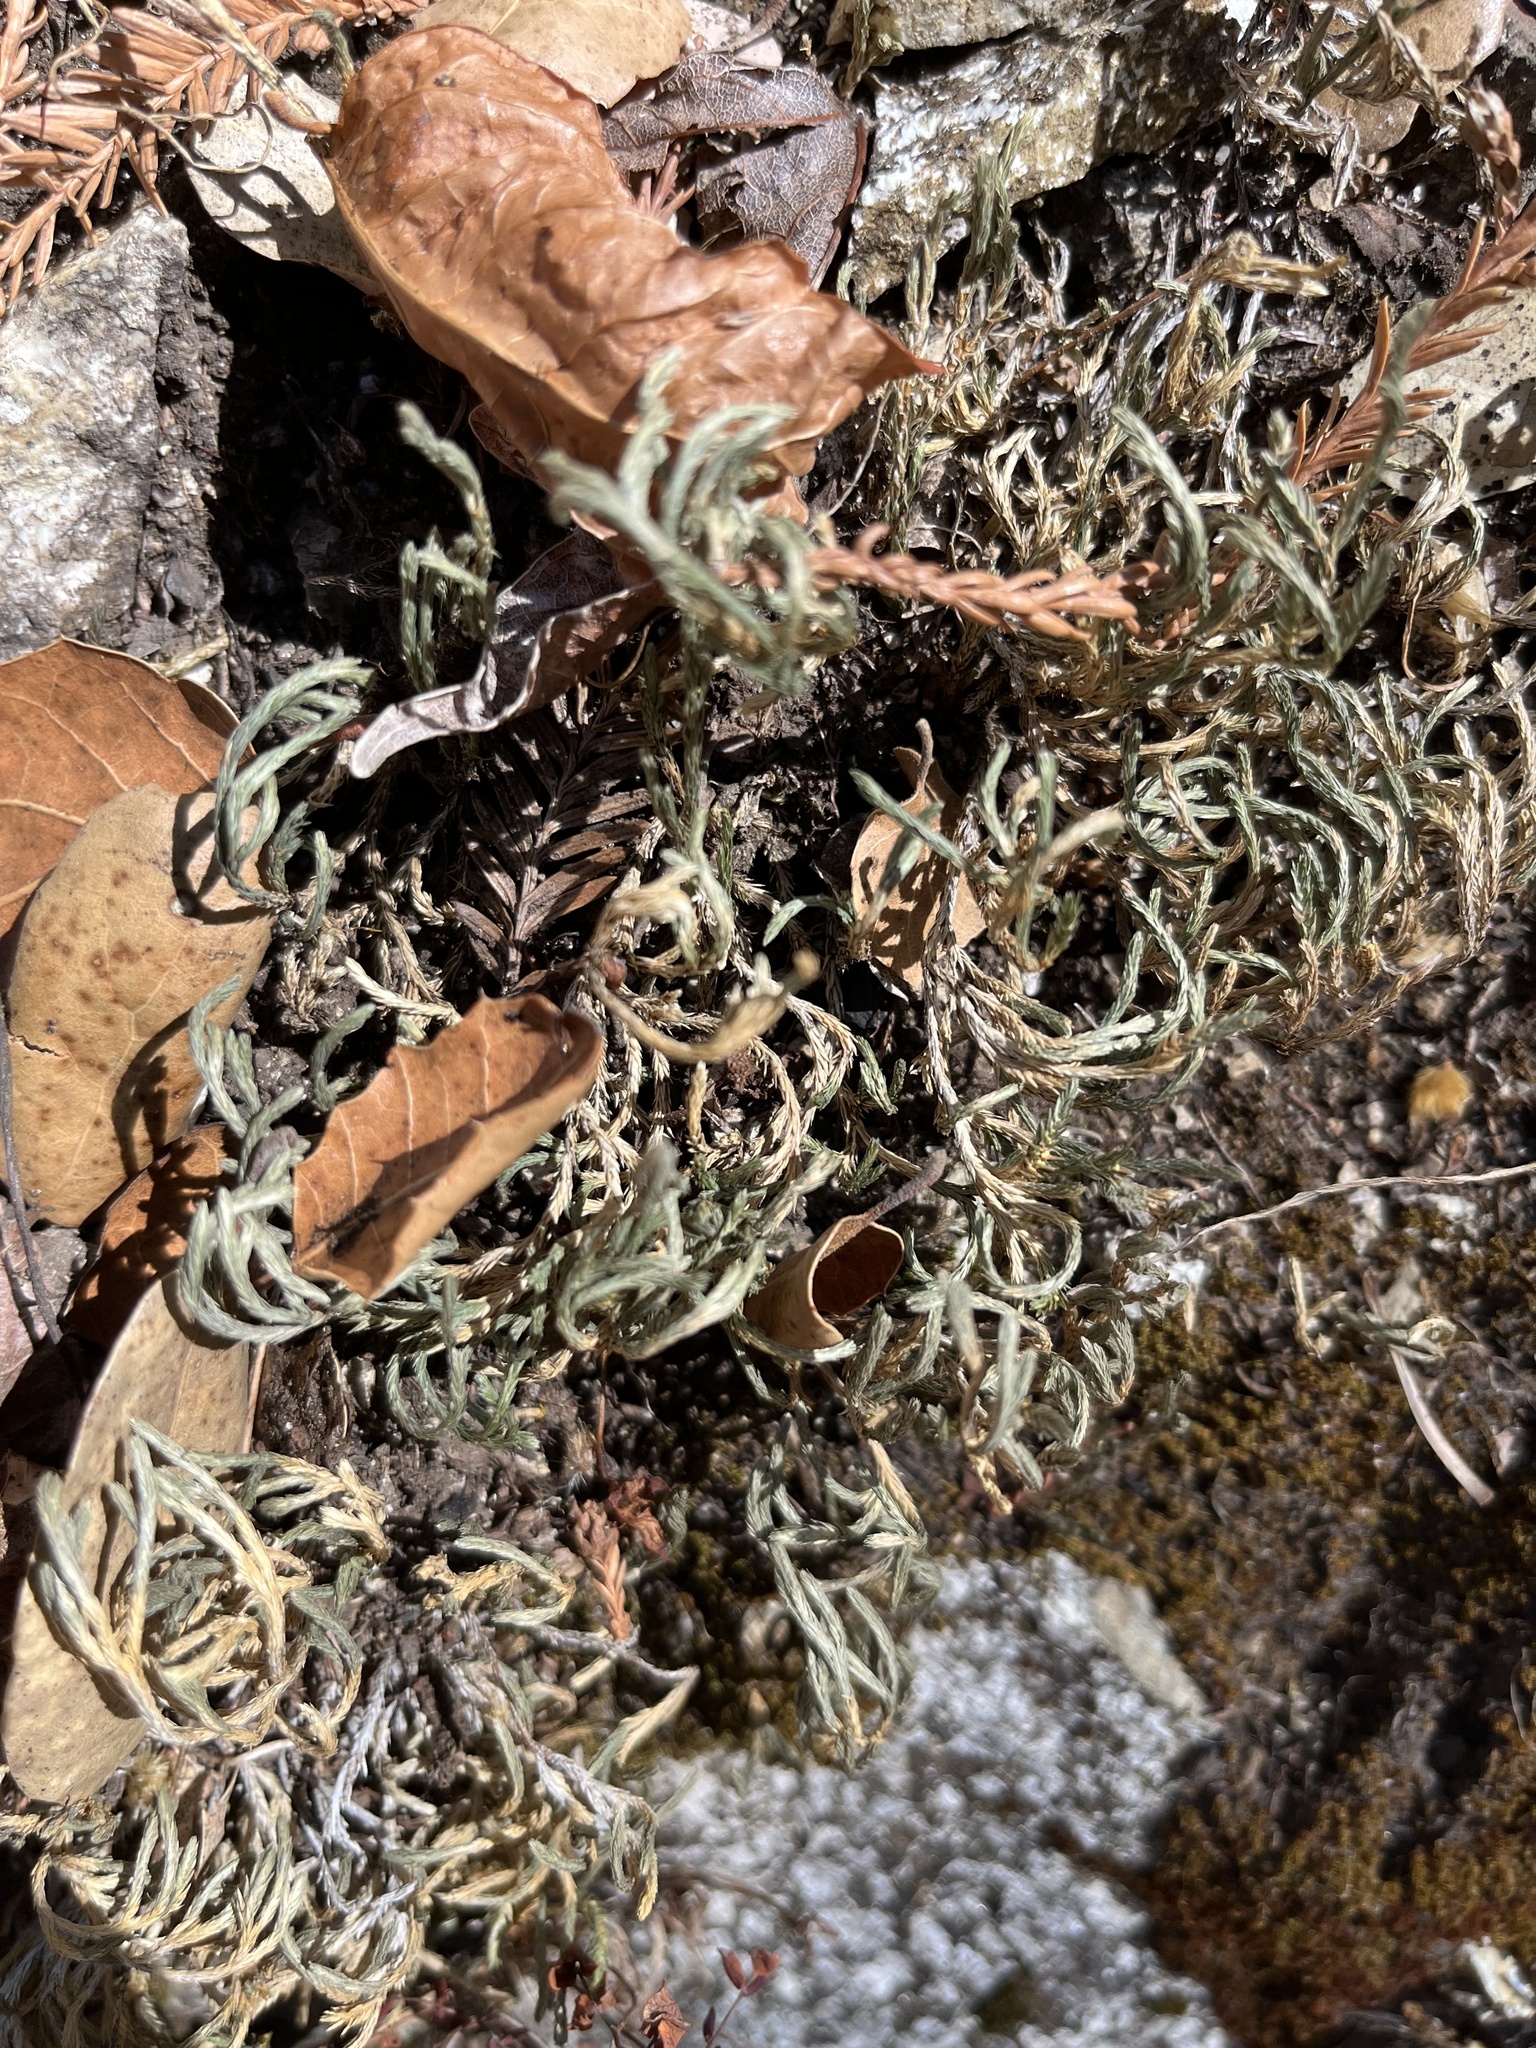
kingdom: Plantae
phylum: Tracheophyta
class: Lycopodiopsida
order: Selaginellales
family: Selaginellaceae
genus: Selaginella
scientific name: Selaginella bigelovii
